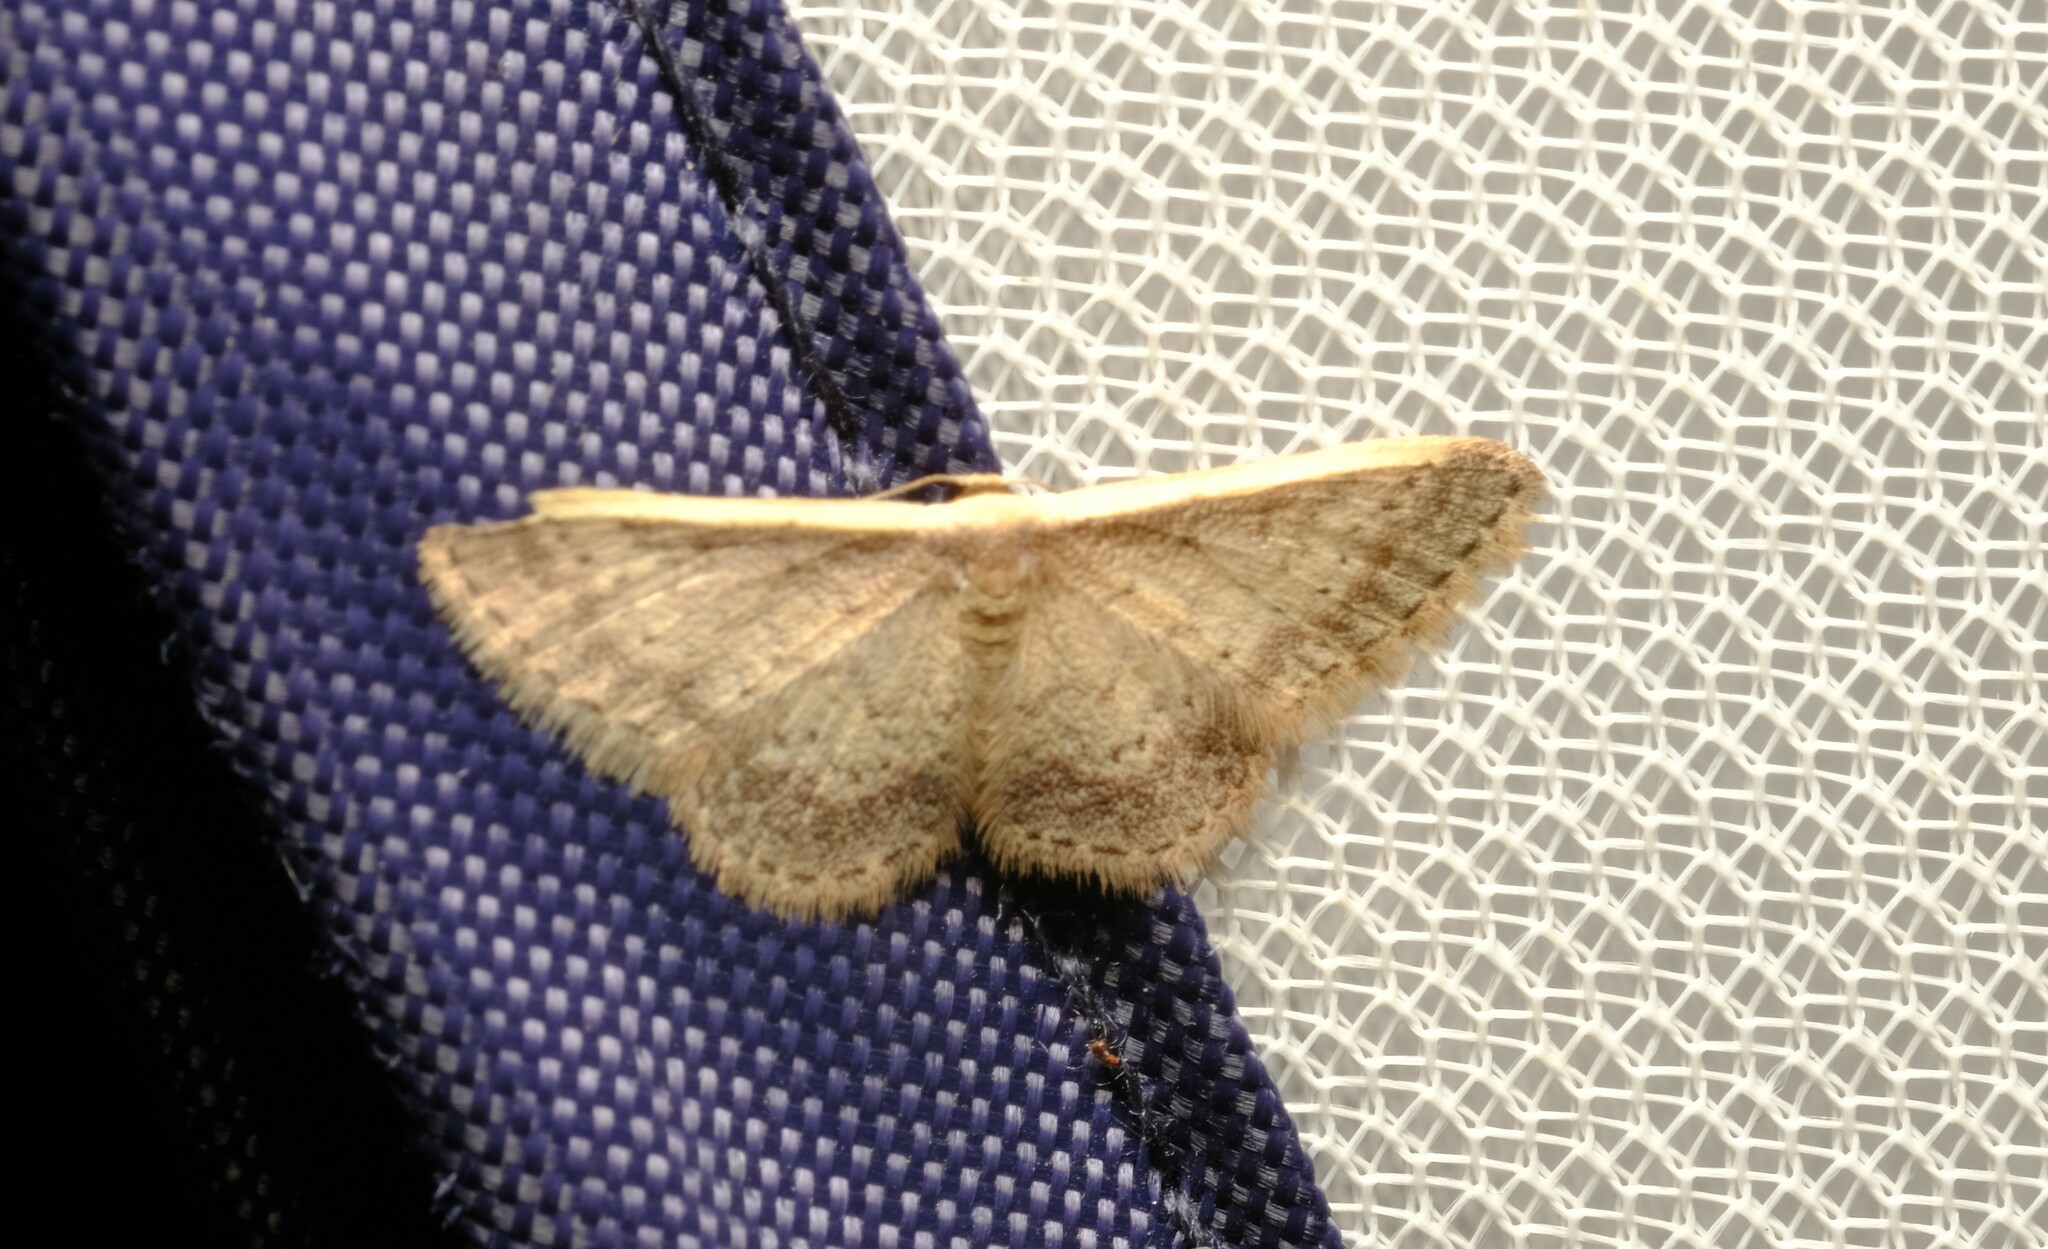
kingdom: Animalia
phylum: Arthropoda
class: Insecta
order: Lepidoptera
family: Geometridae
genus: Idaea
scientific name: Idaea nephelota
